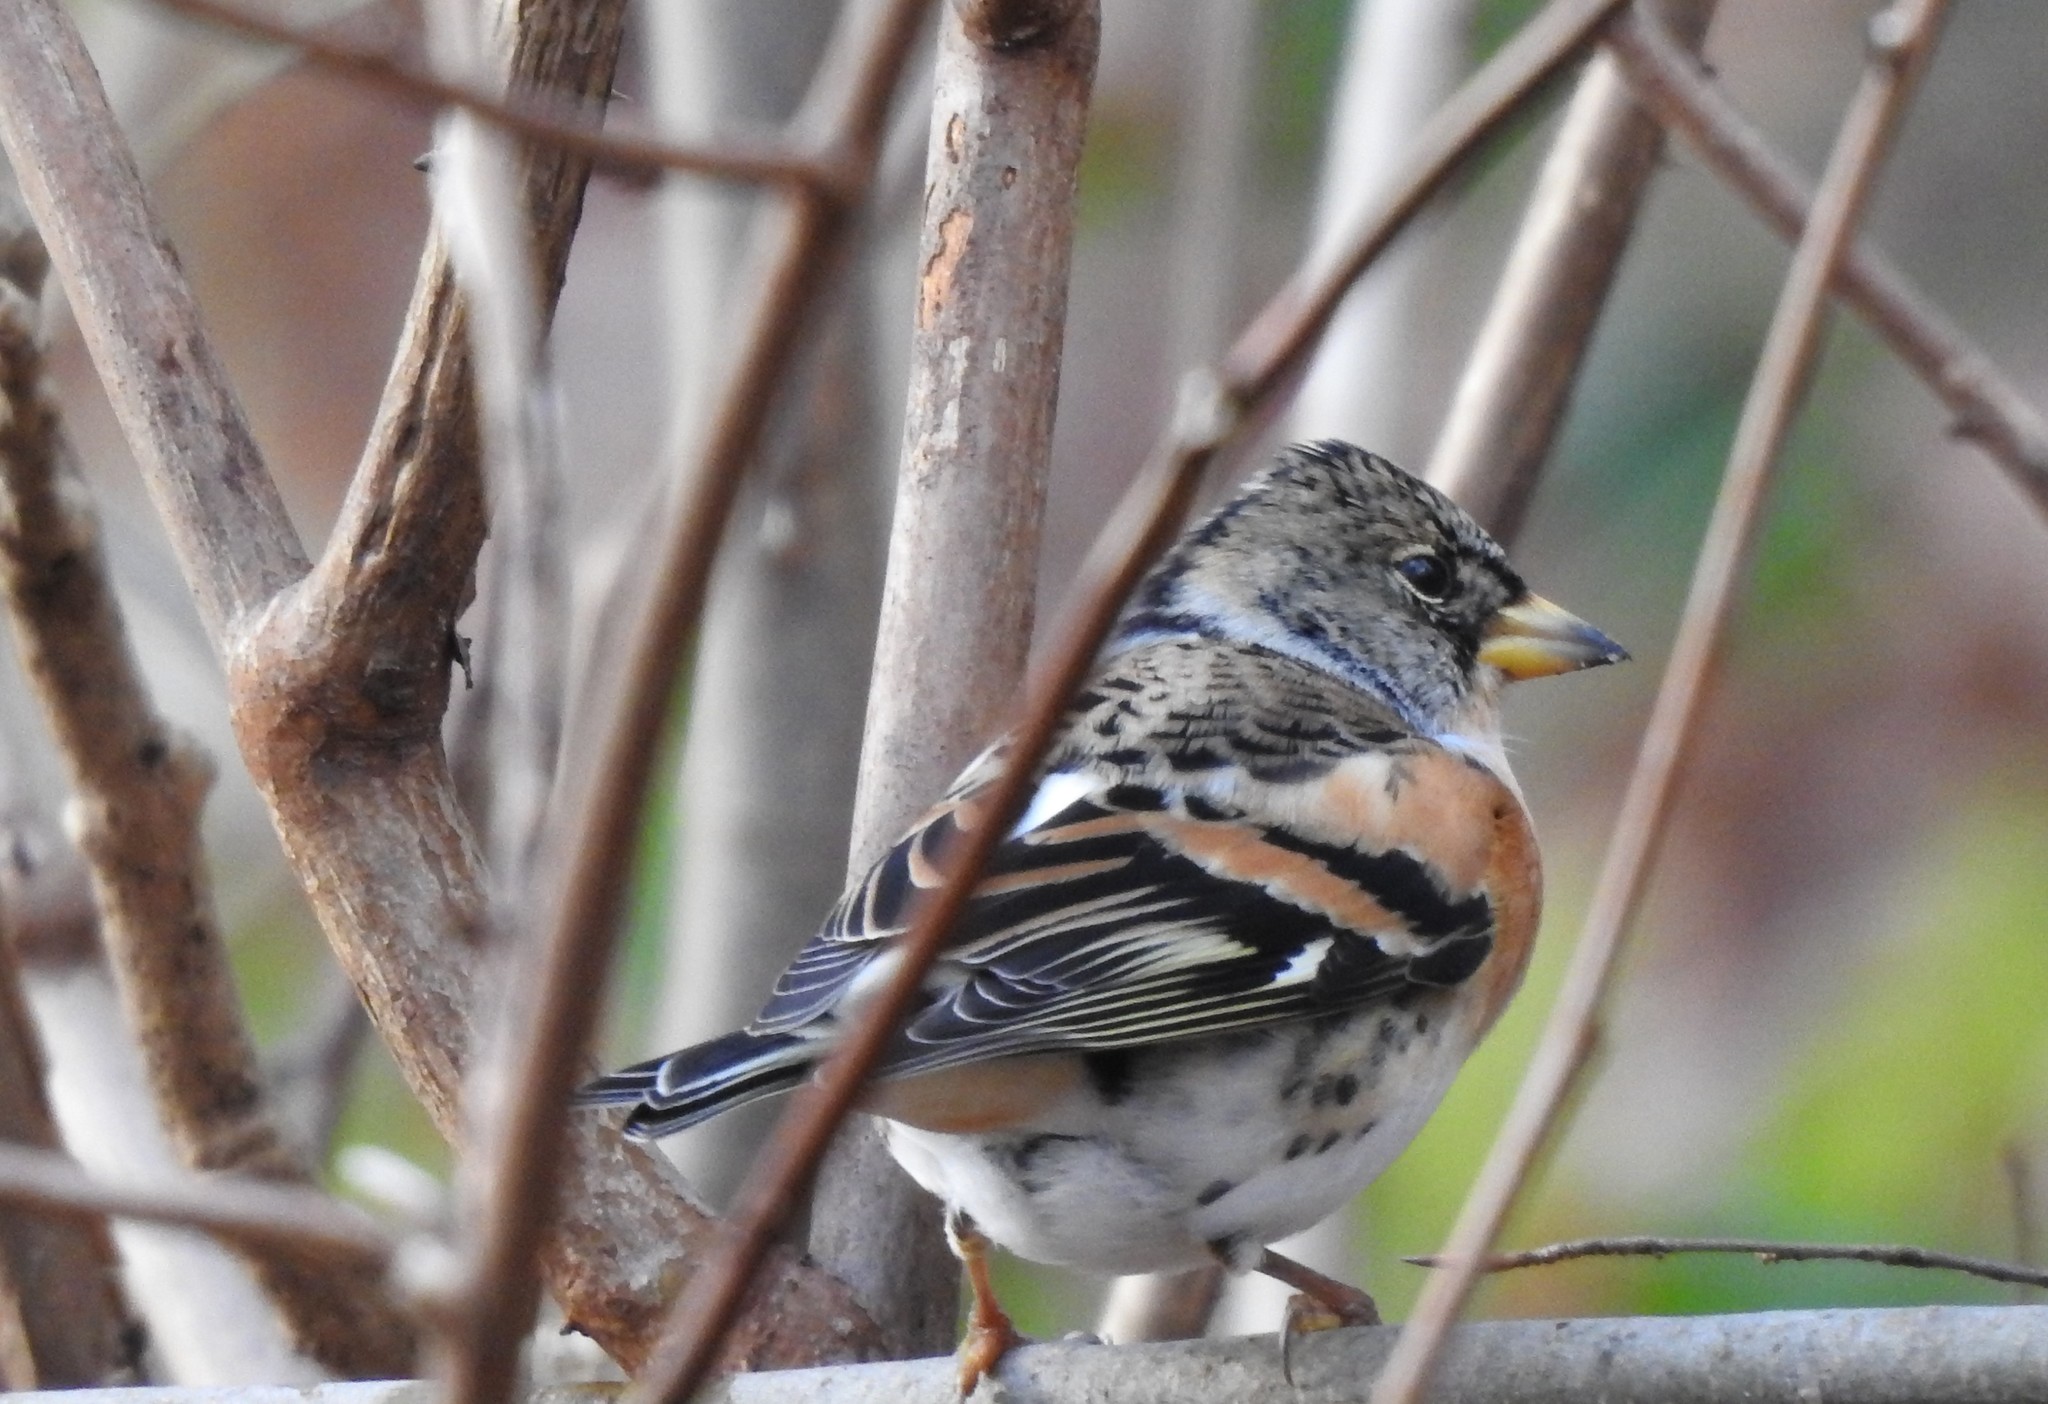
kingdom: Animalia
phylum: Chordata
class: Aves
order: Passeriformes
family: Fringillidae
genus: Fringilla
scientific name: Fringilla montifringilla
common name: Brambling
